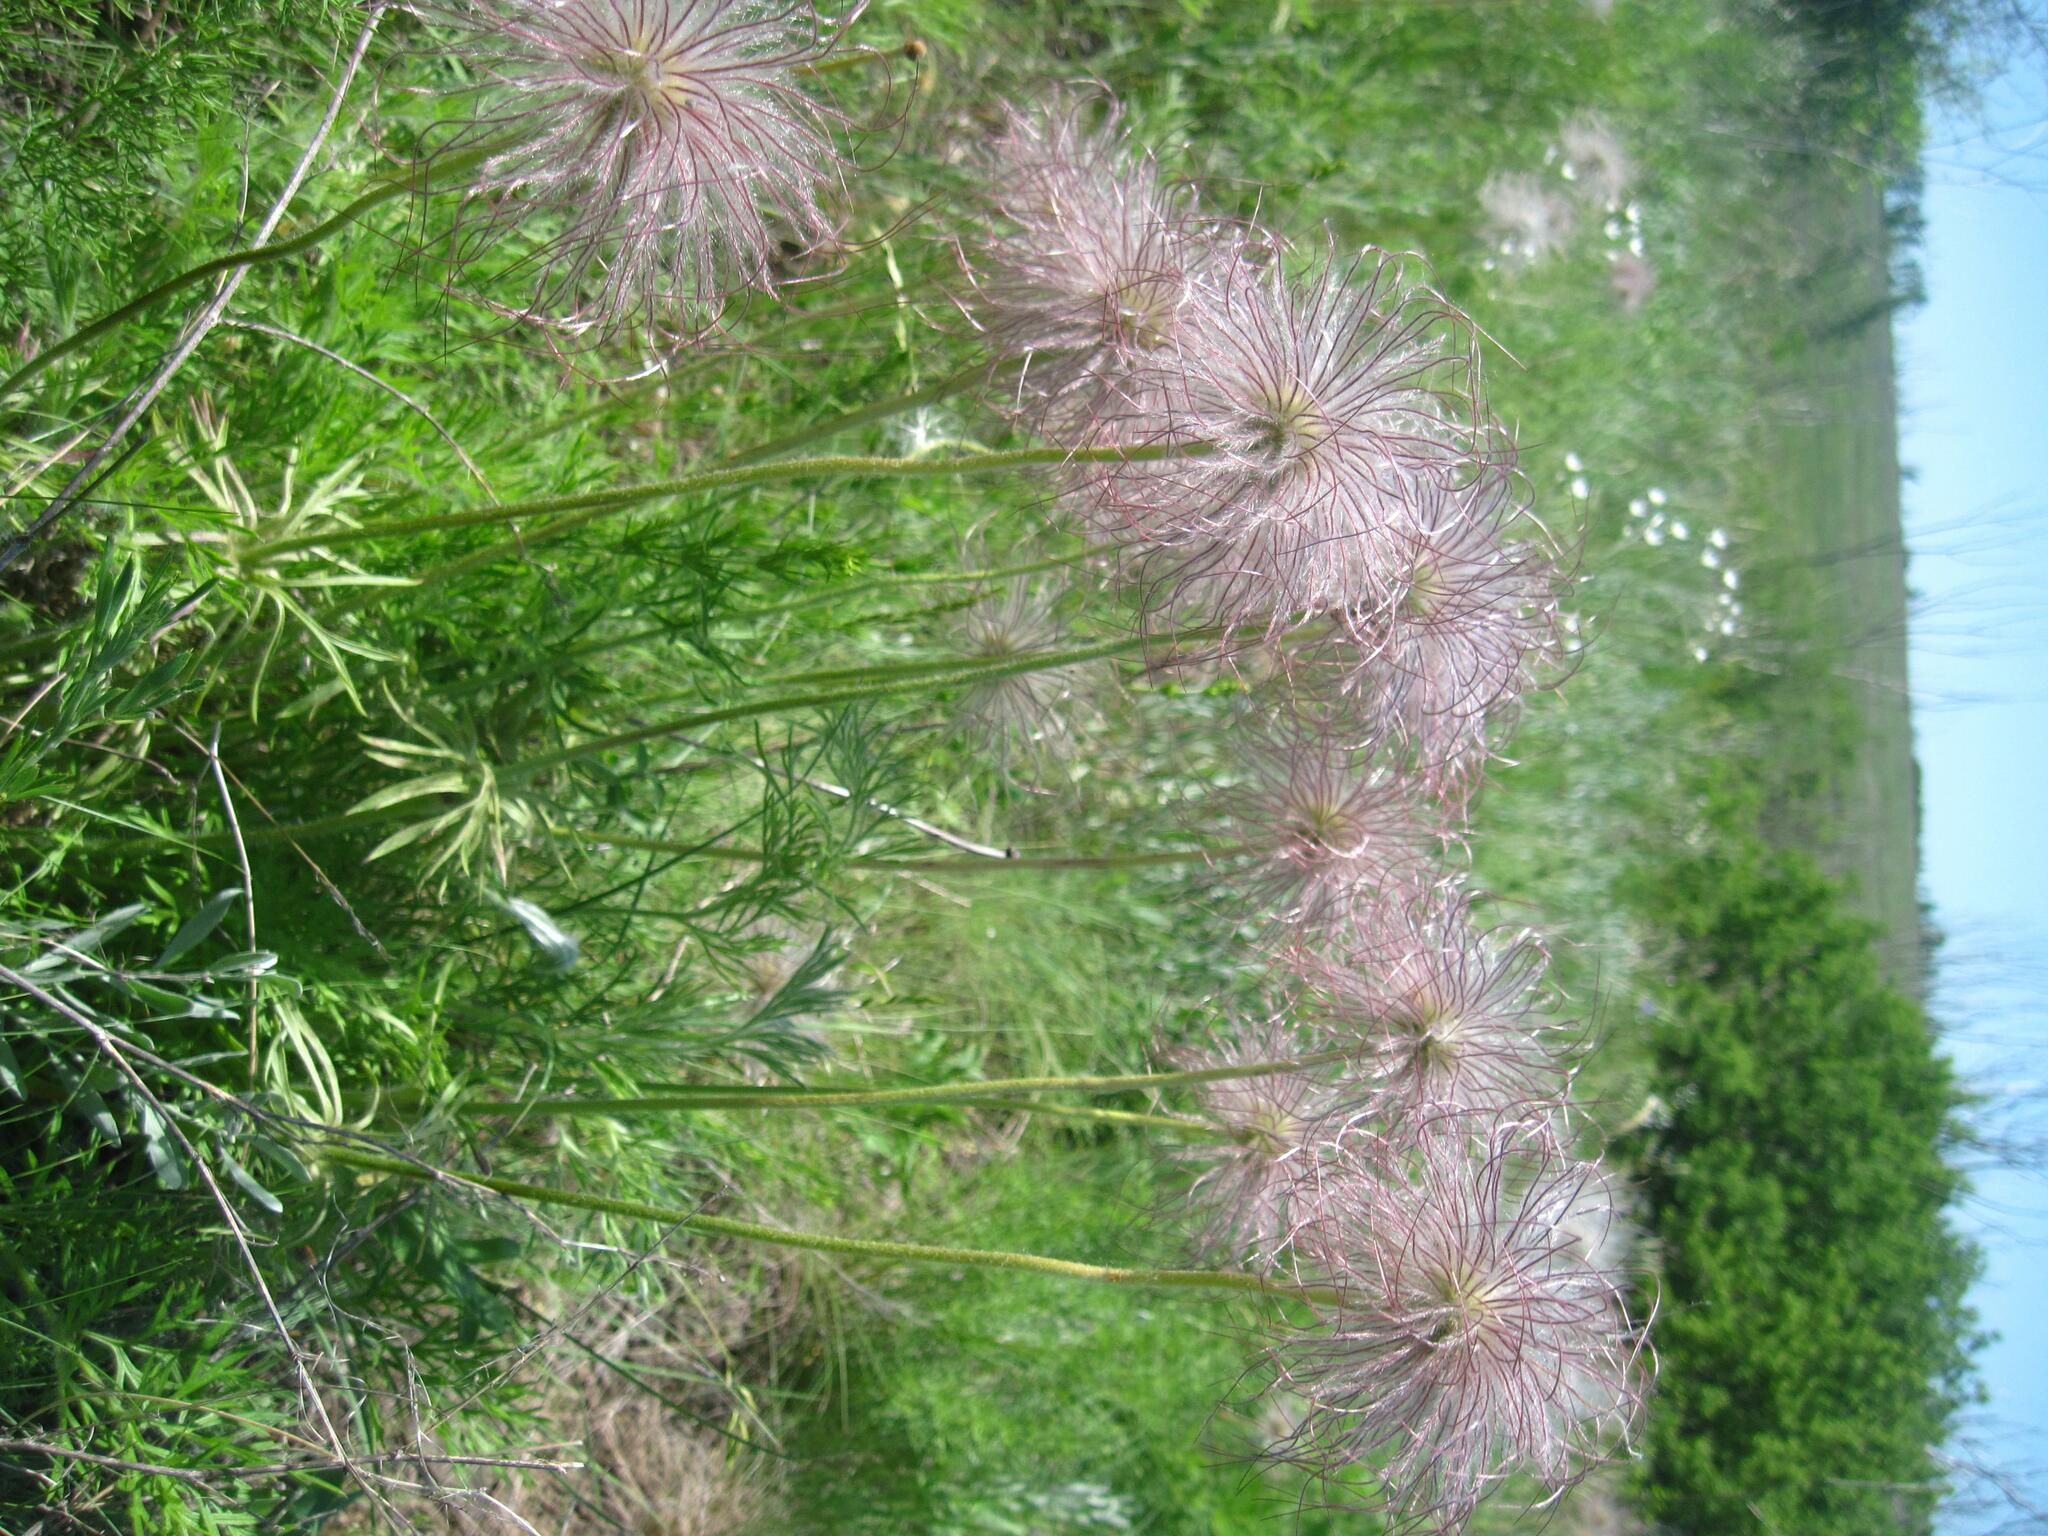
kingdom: Plantae
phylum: Tracheophyta
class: Magnoliopsida
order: Ranunculales
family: Ranunculaceae
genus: Pulsatilla
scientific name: Pulsatilla pratensis
